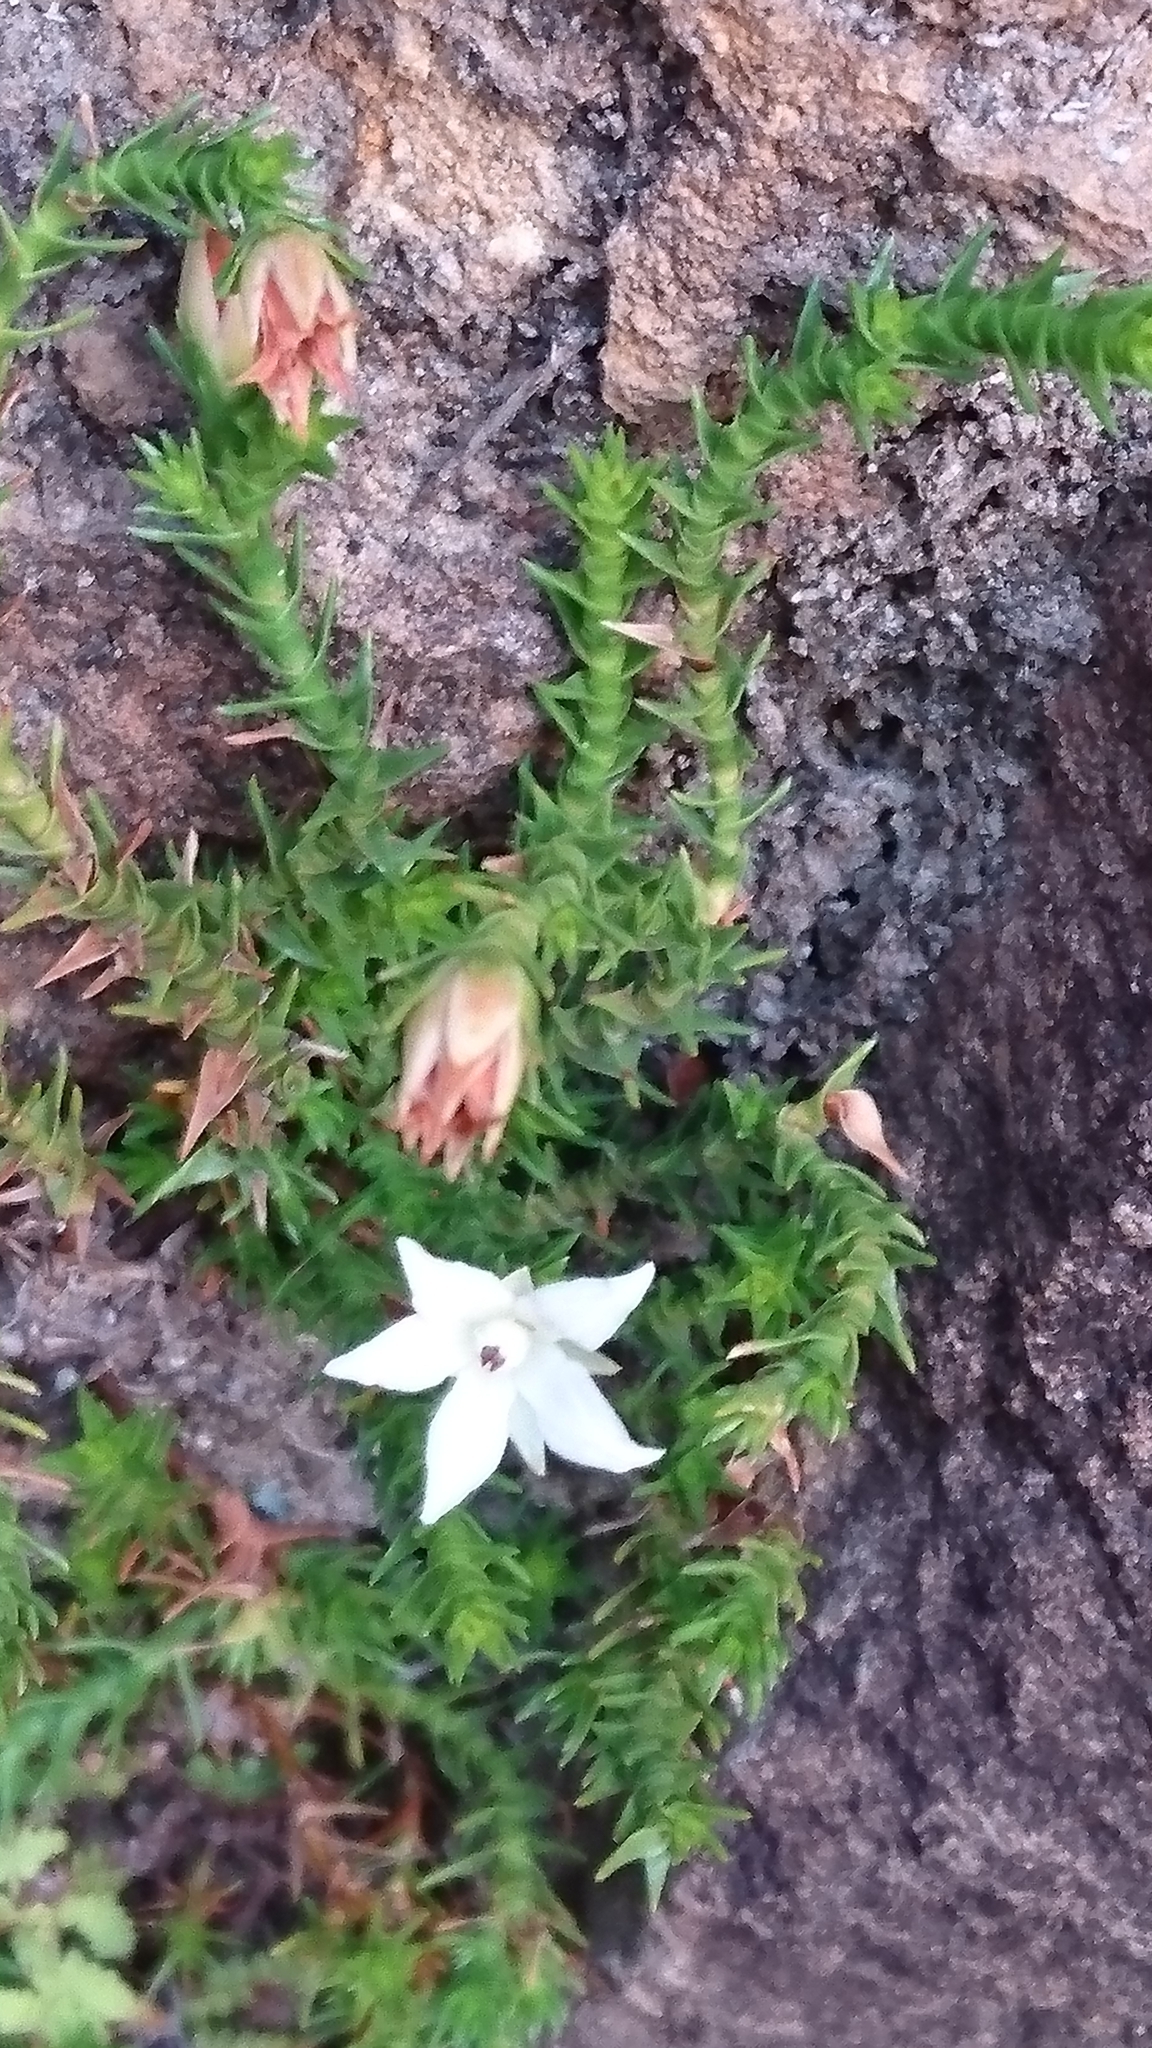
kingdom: Plantae
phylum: Tracheophyta
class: Magnoliopsida
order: Ericales
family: Ericaceae
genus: Sprengelia
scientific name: Sprengelia monticola
